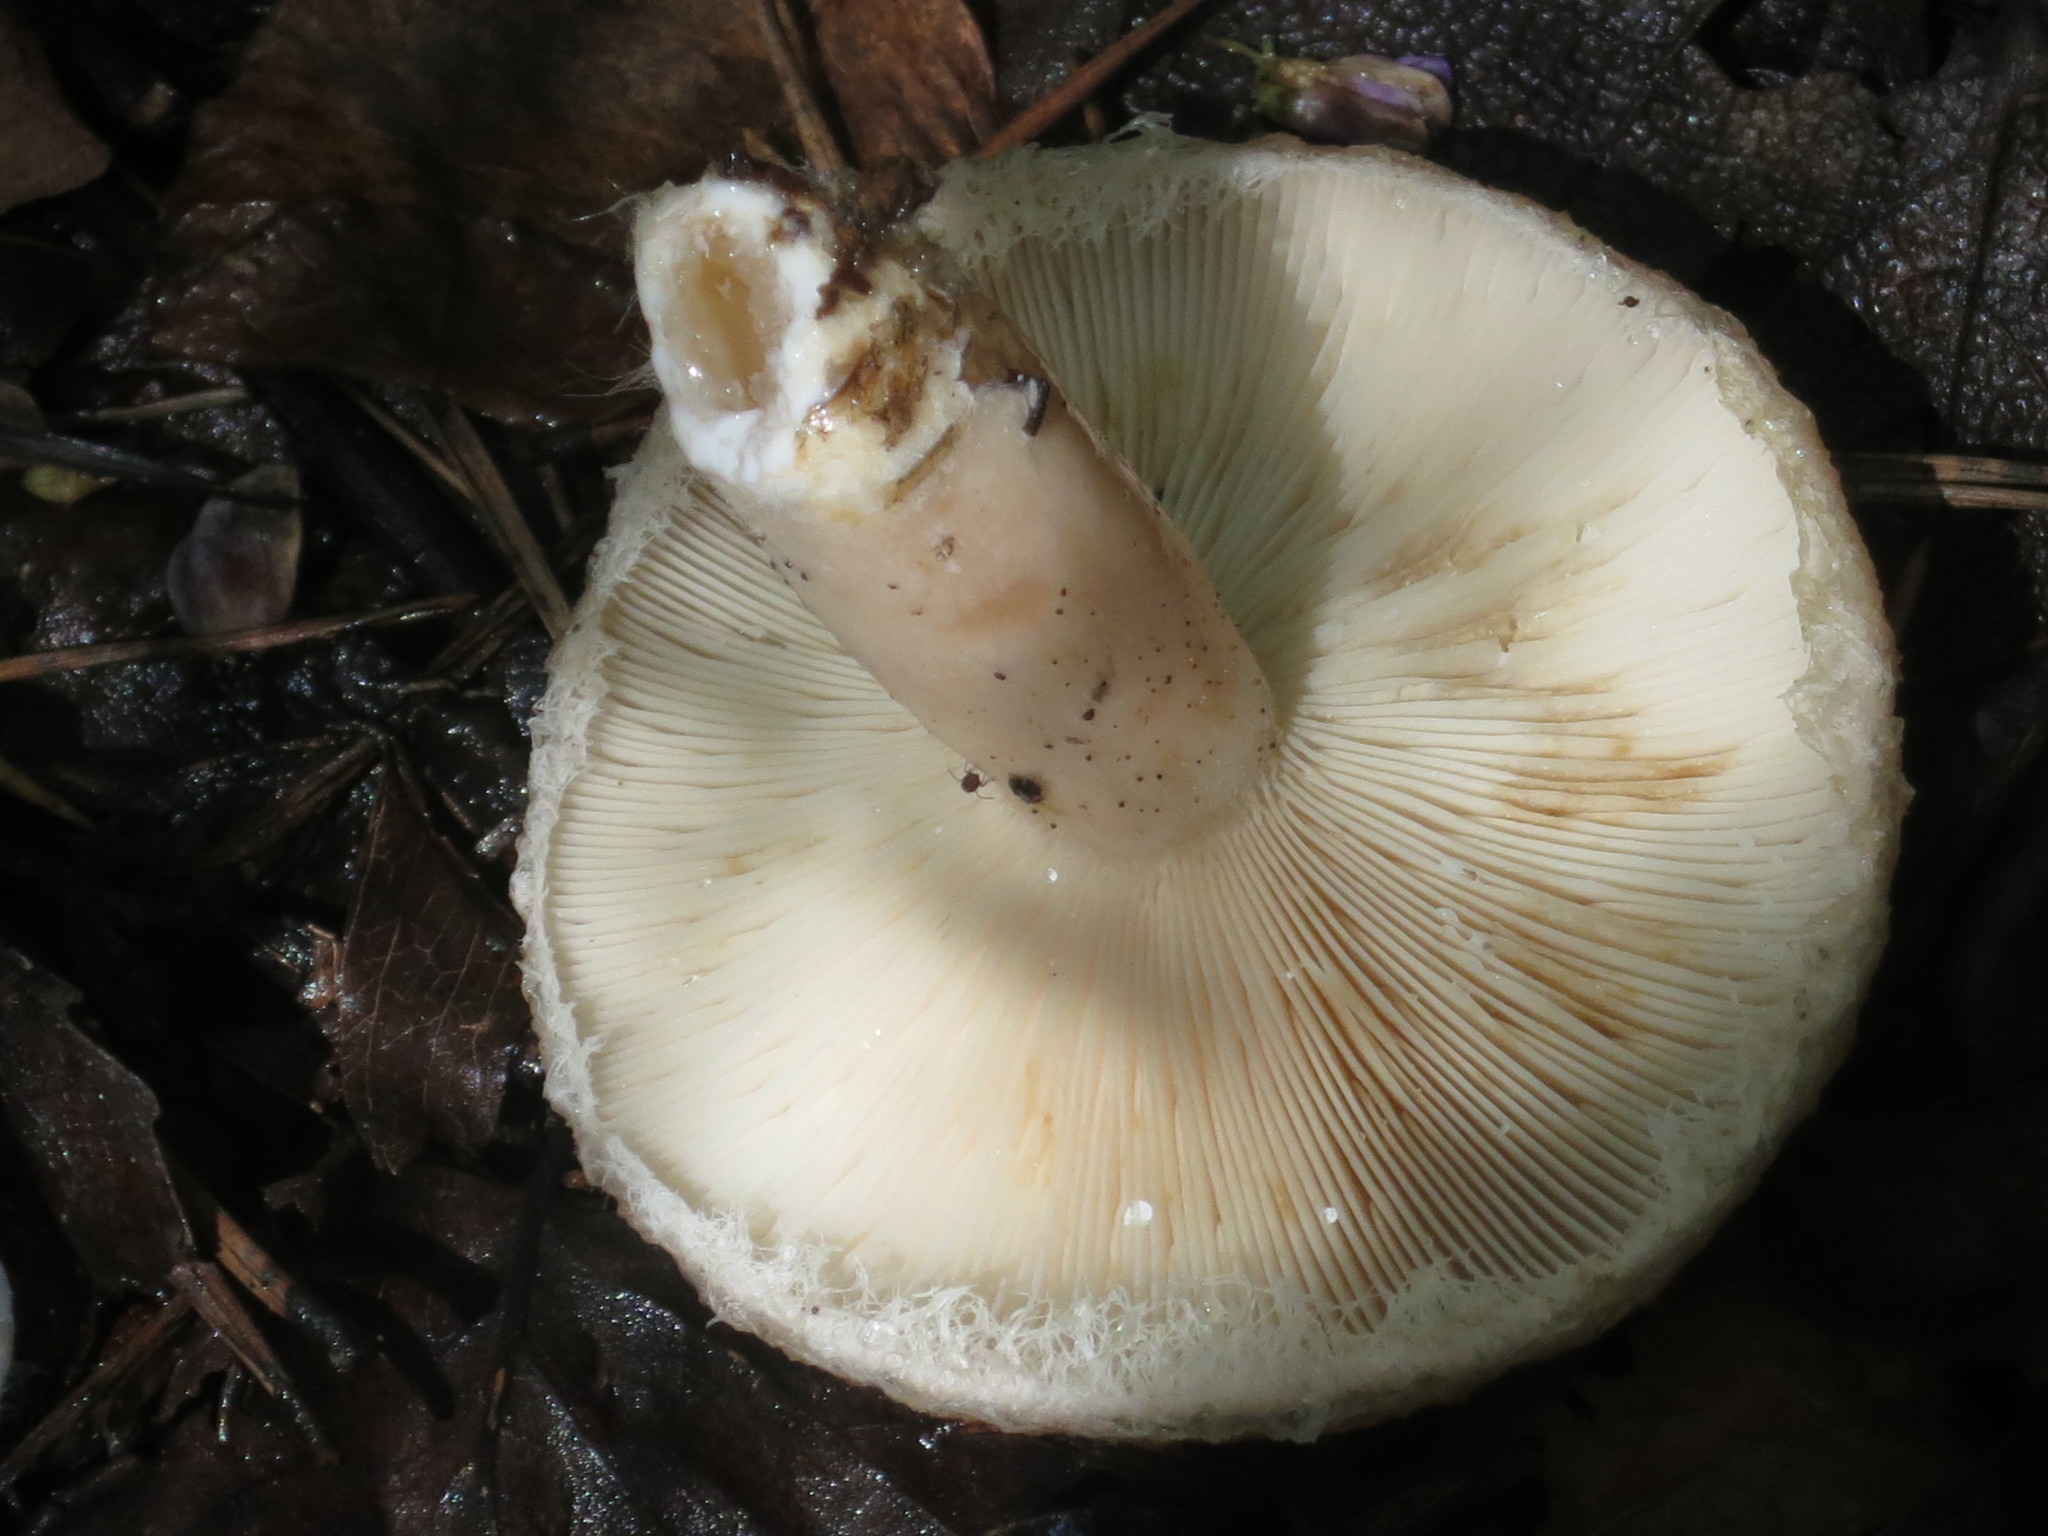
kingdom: Fungi
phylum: Basidiomycota
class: Agaricomycetes
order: Russulales
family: Russulaceae
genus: Lactarius
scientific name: Lactarius torminosus
